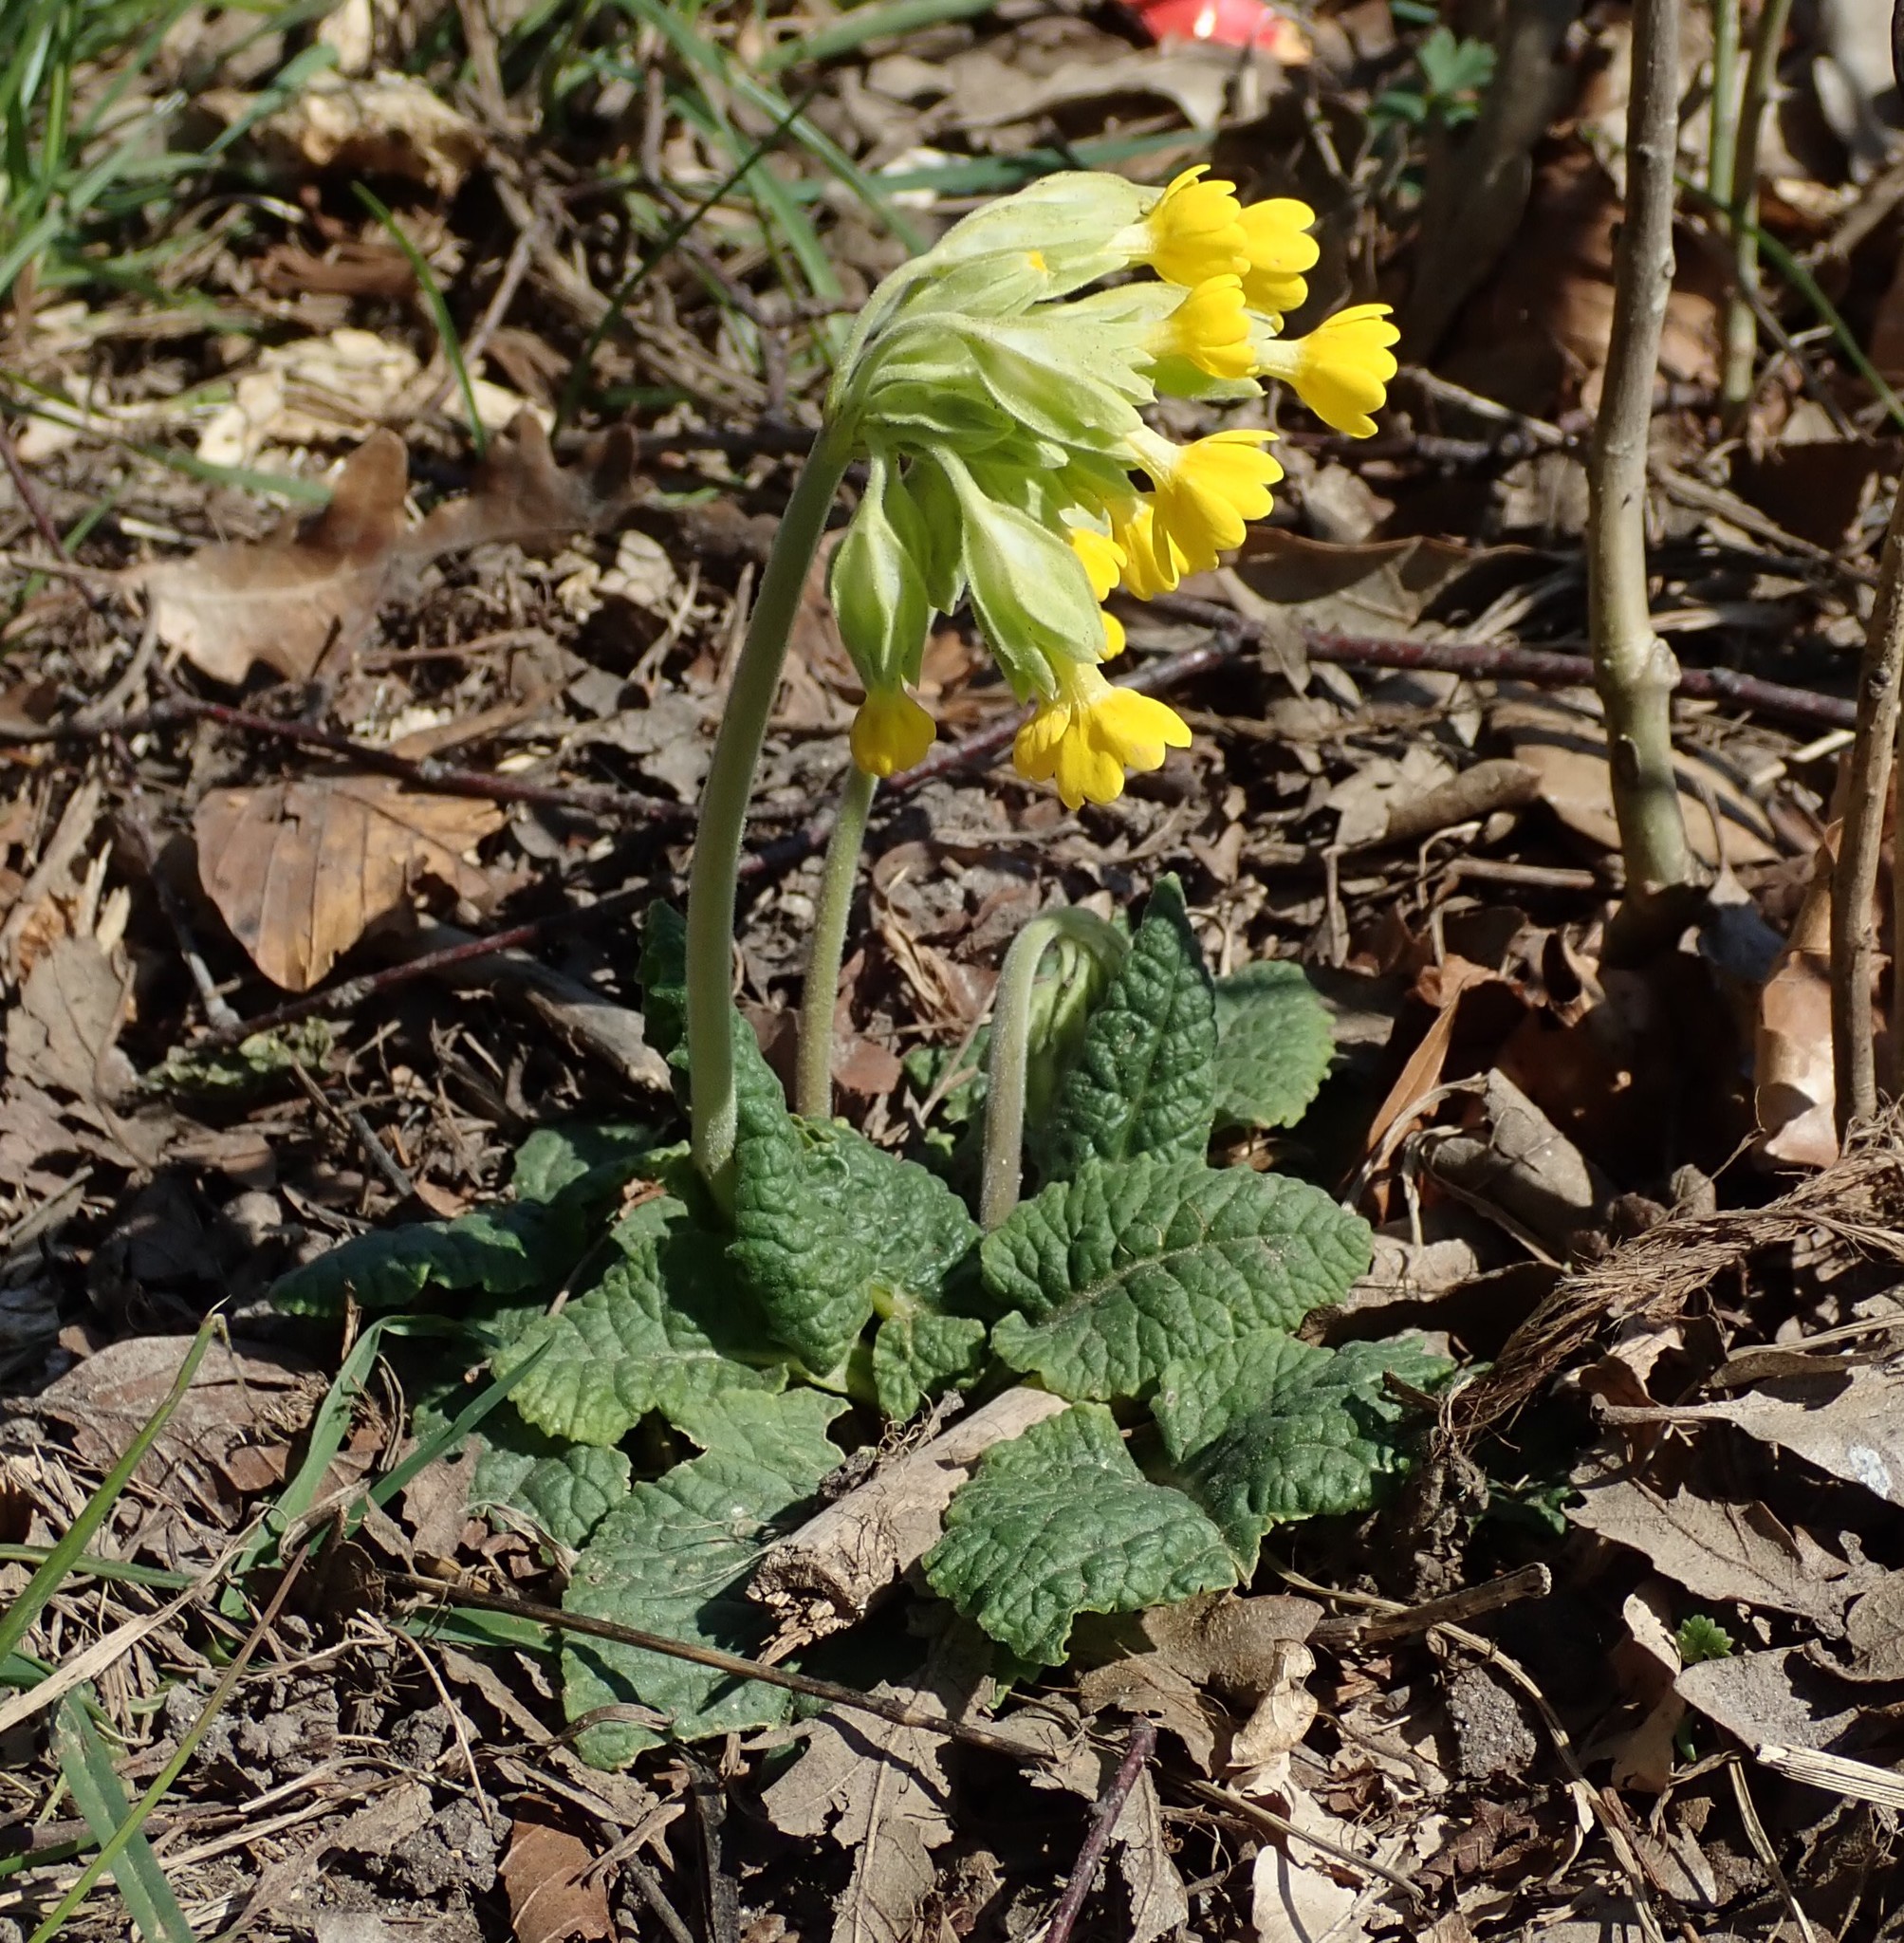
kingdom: Plantae
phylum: Tracheophyta
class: Magnoliopsida
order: Ericales
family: Primulaceae
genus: Primula
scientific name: Primula veris
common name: Cowslip
